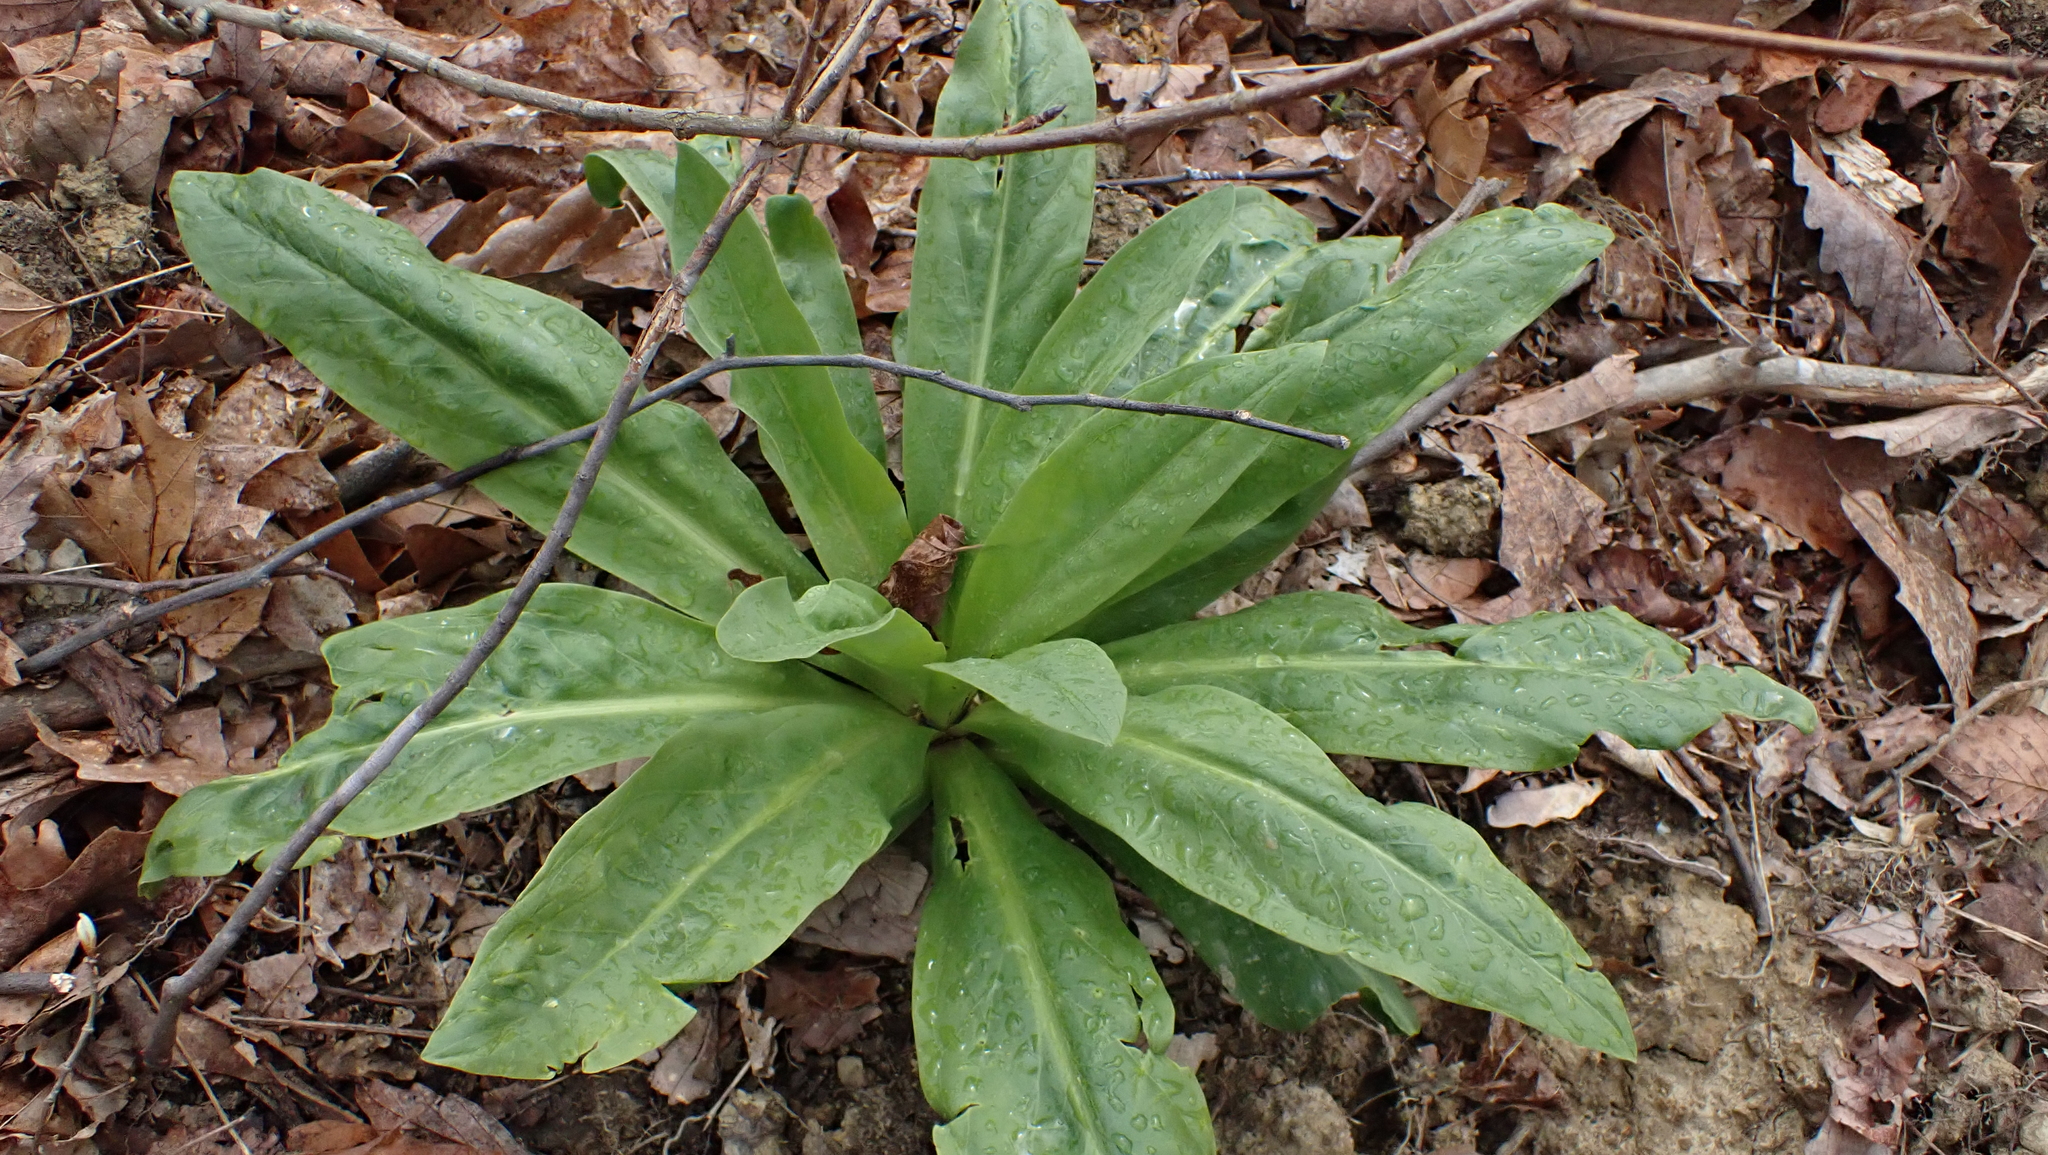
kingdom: Plantae
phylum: Tracheophyta
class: Magnoliopsida
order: Gentianales
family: Gentianaceae
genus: Frasera
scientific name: Frasera caroliniensis
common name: American columbo
